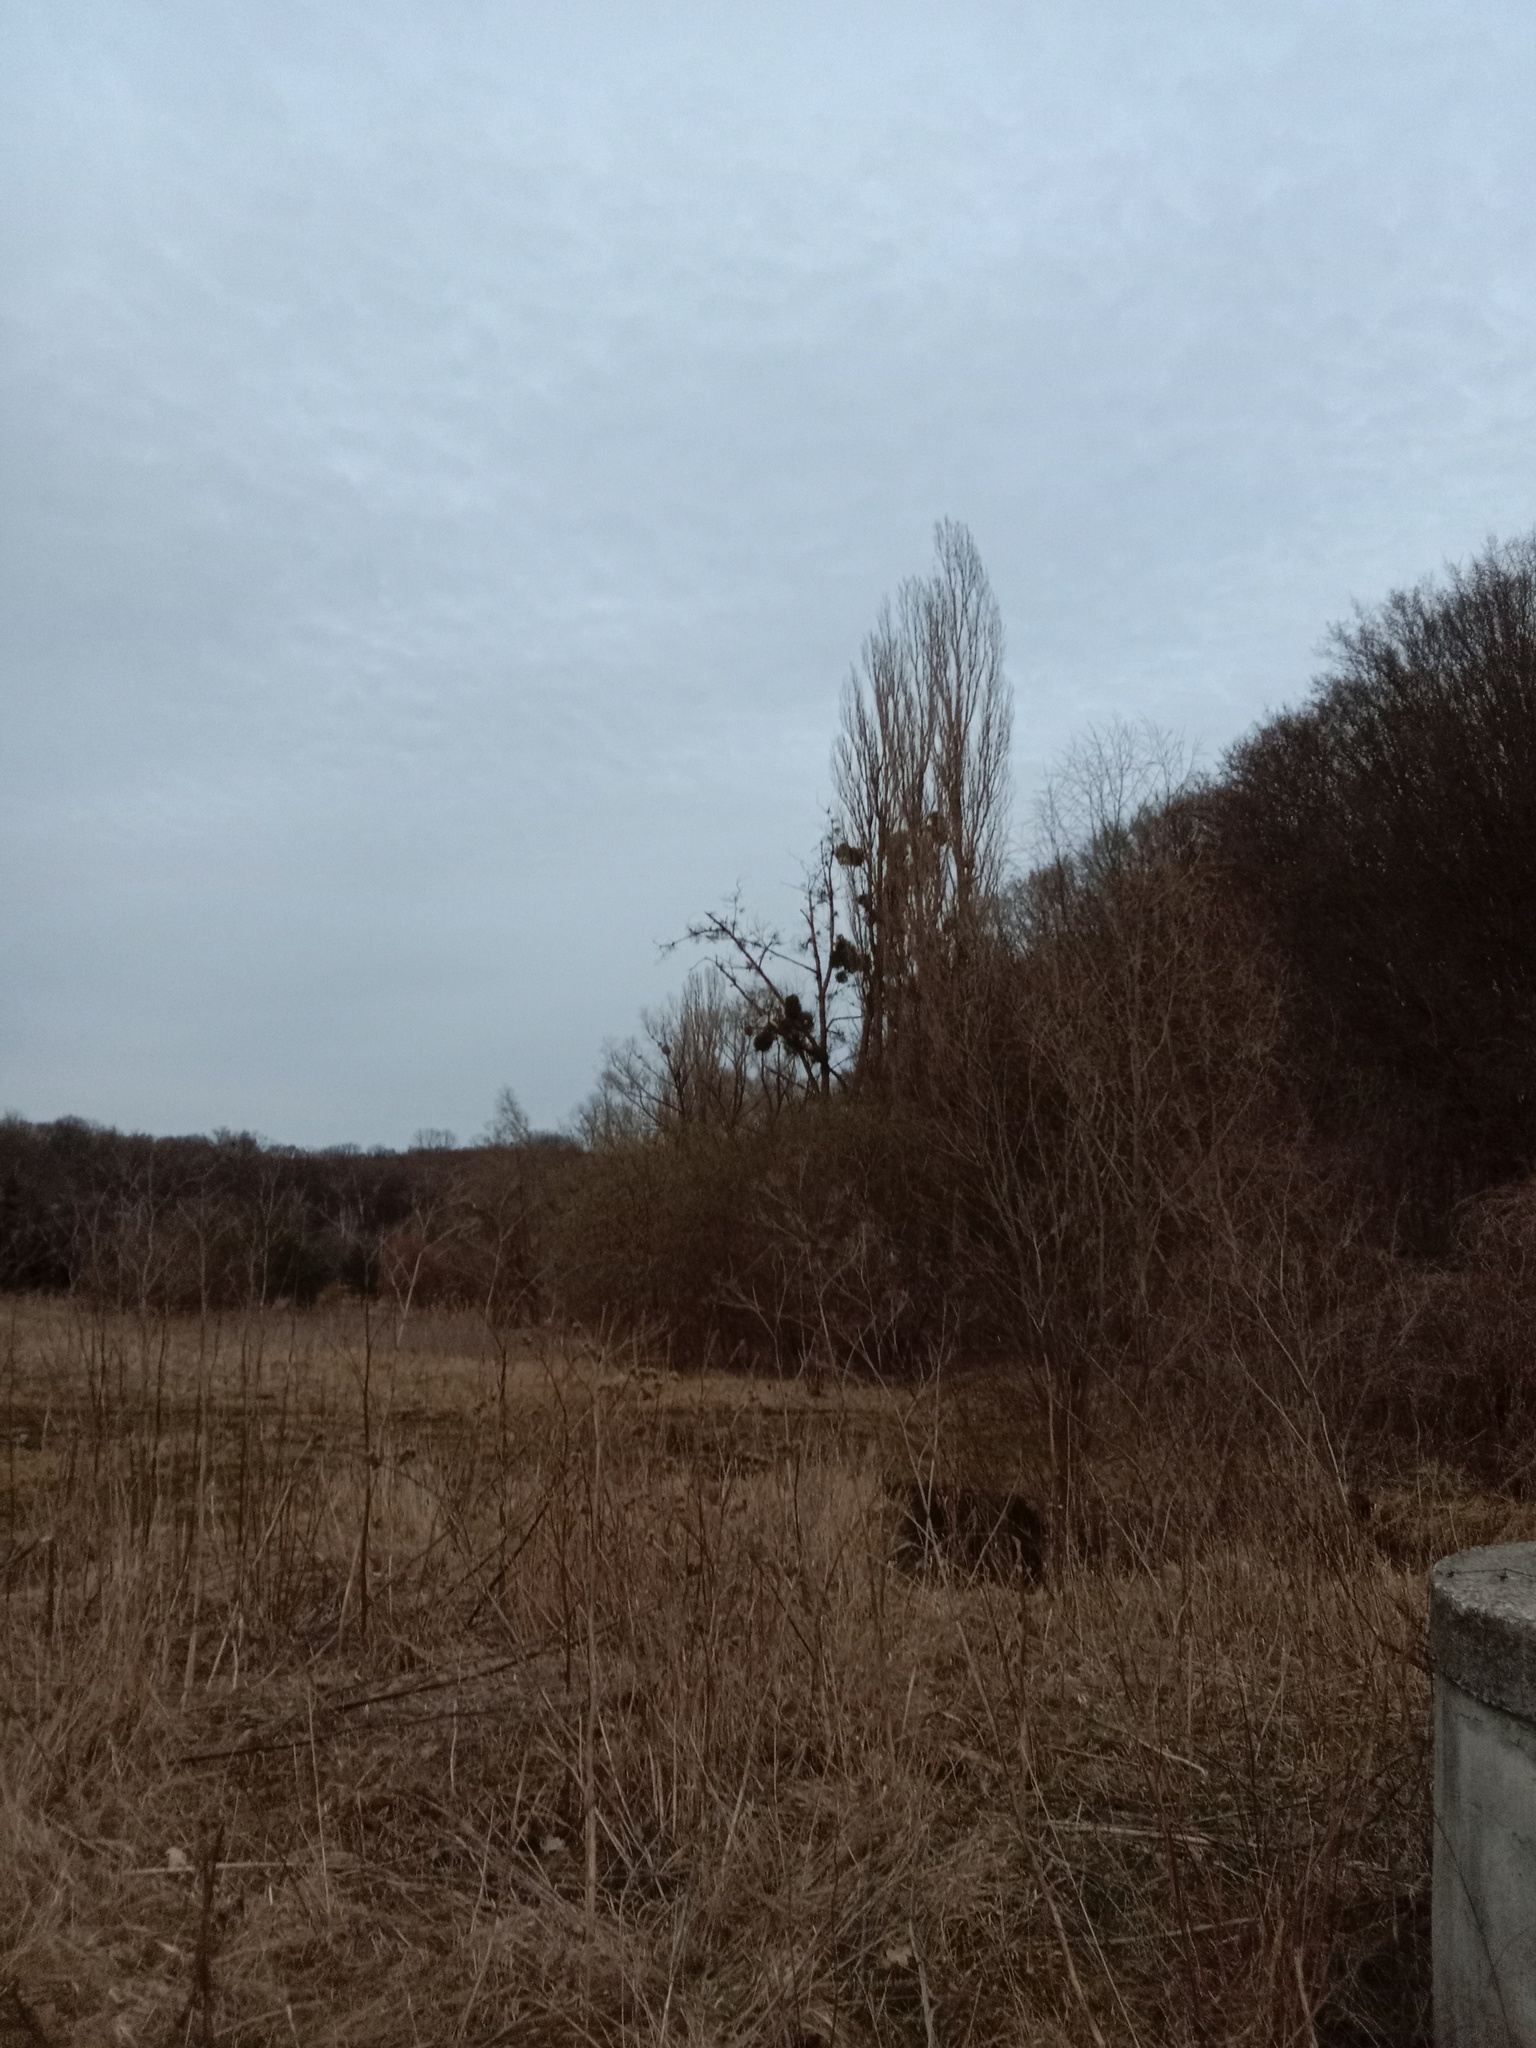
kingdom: Plantae
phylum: Tracheophyta
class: Magnoliopsida
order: Santalales
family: Viscaceae
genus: Viscum
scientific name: Viscum album
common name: Mistletoe
